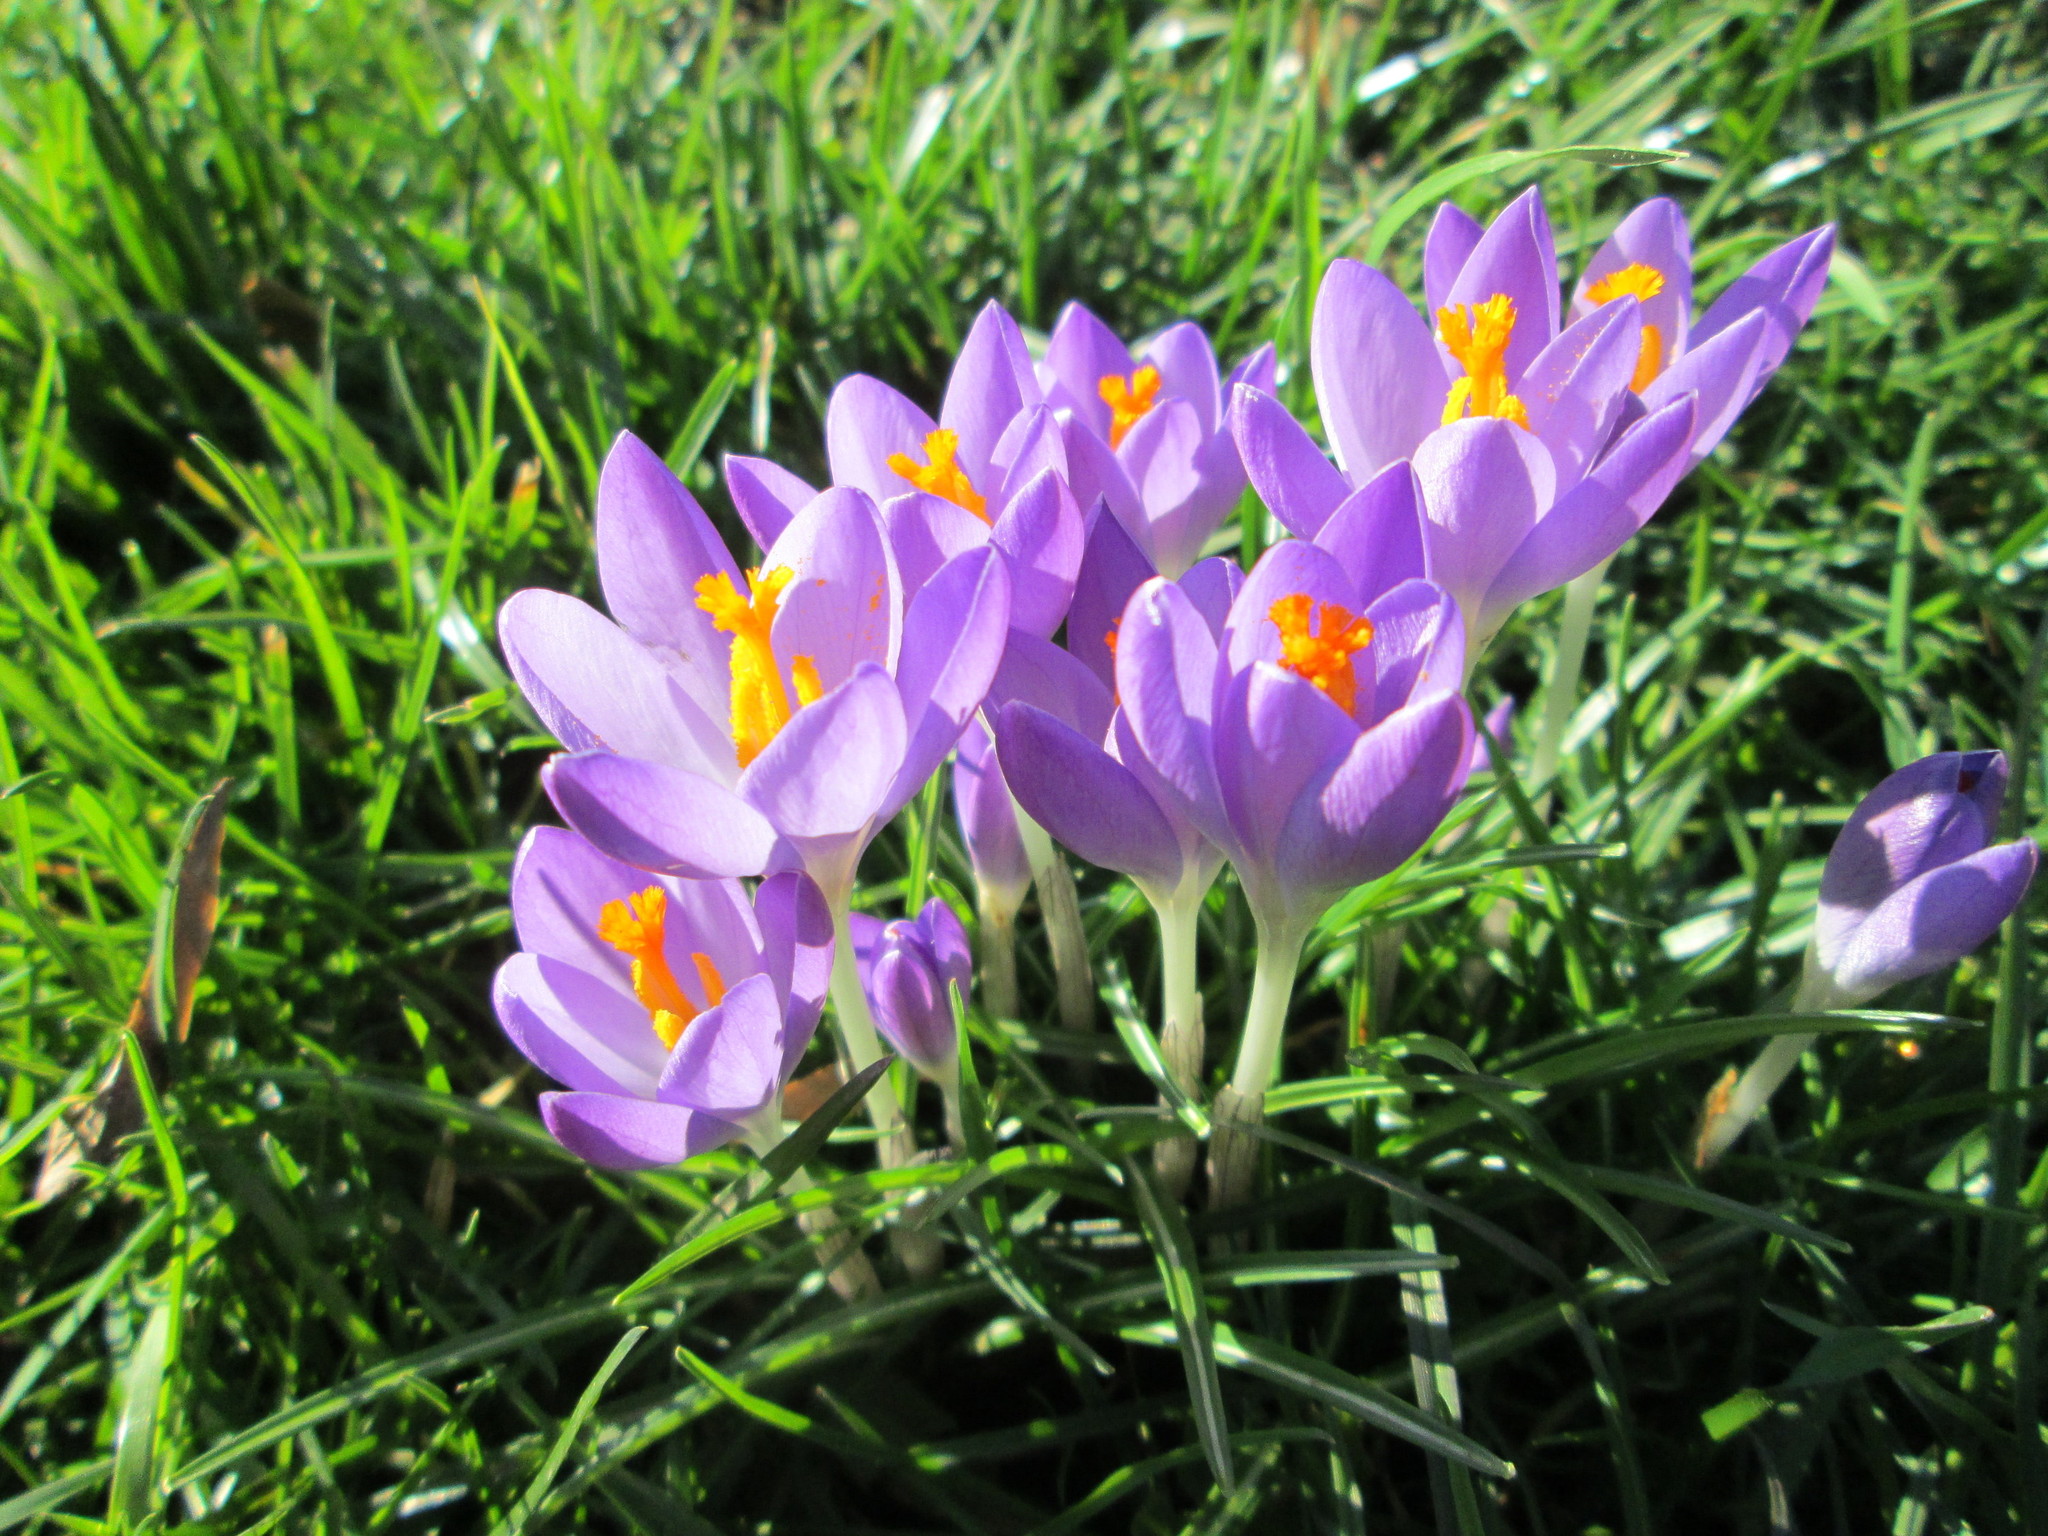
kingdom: Plantae
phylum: Tracheophyta
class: Liliopsida
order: Asparagales
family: Iridaceae
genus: Crocus
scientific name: Crocus tommasinianus
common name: Early crocus
